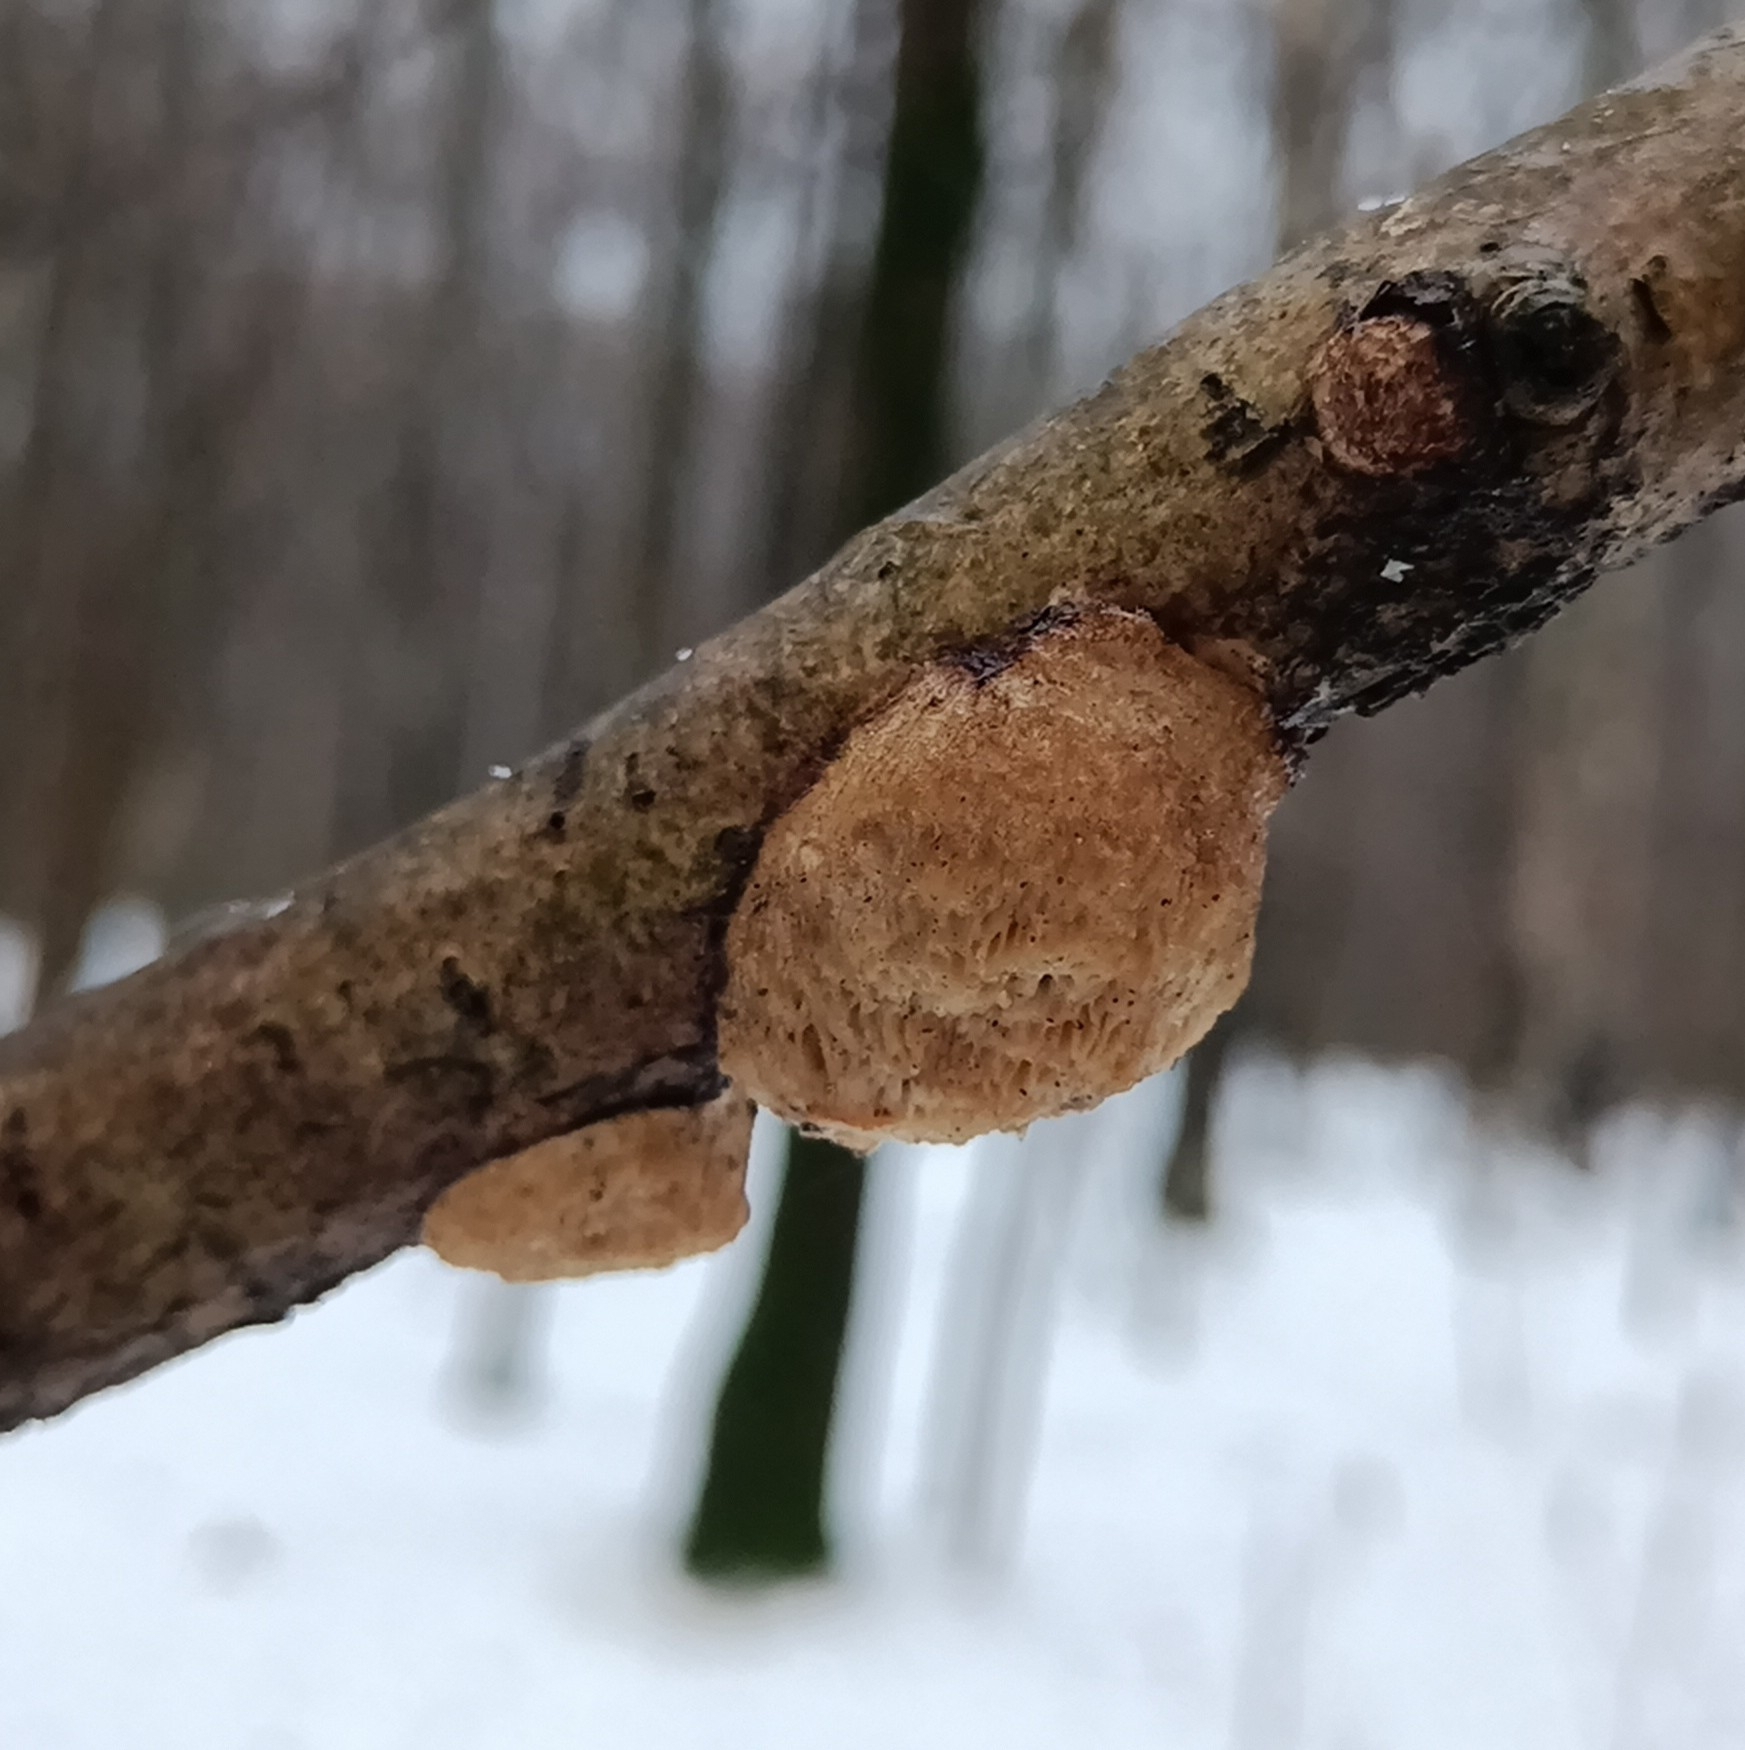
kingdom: Fungi
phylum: Basidiomycota
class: Agaricomycetes
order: Polyporales
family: Polyporaceae
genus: Szczepkamyces
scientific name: Szczepkamyces campestris
